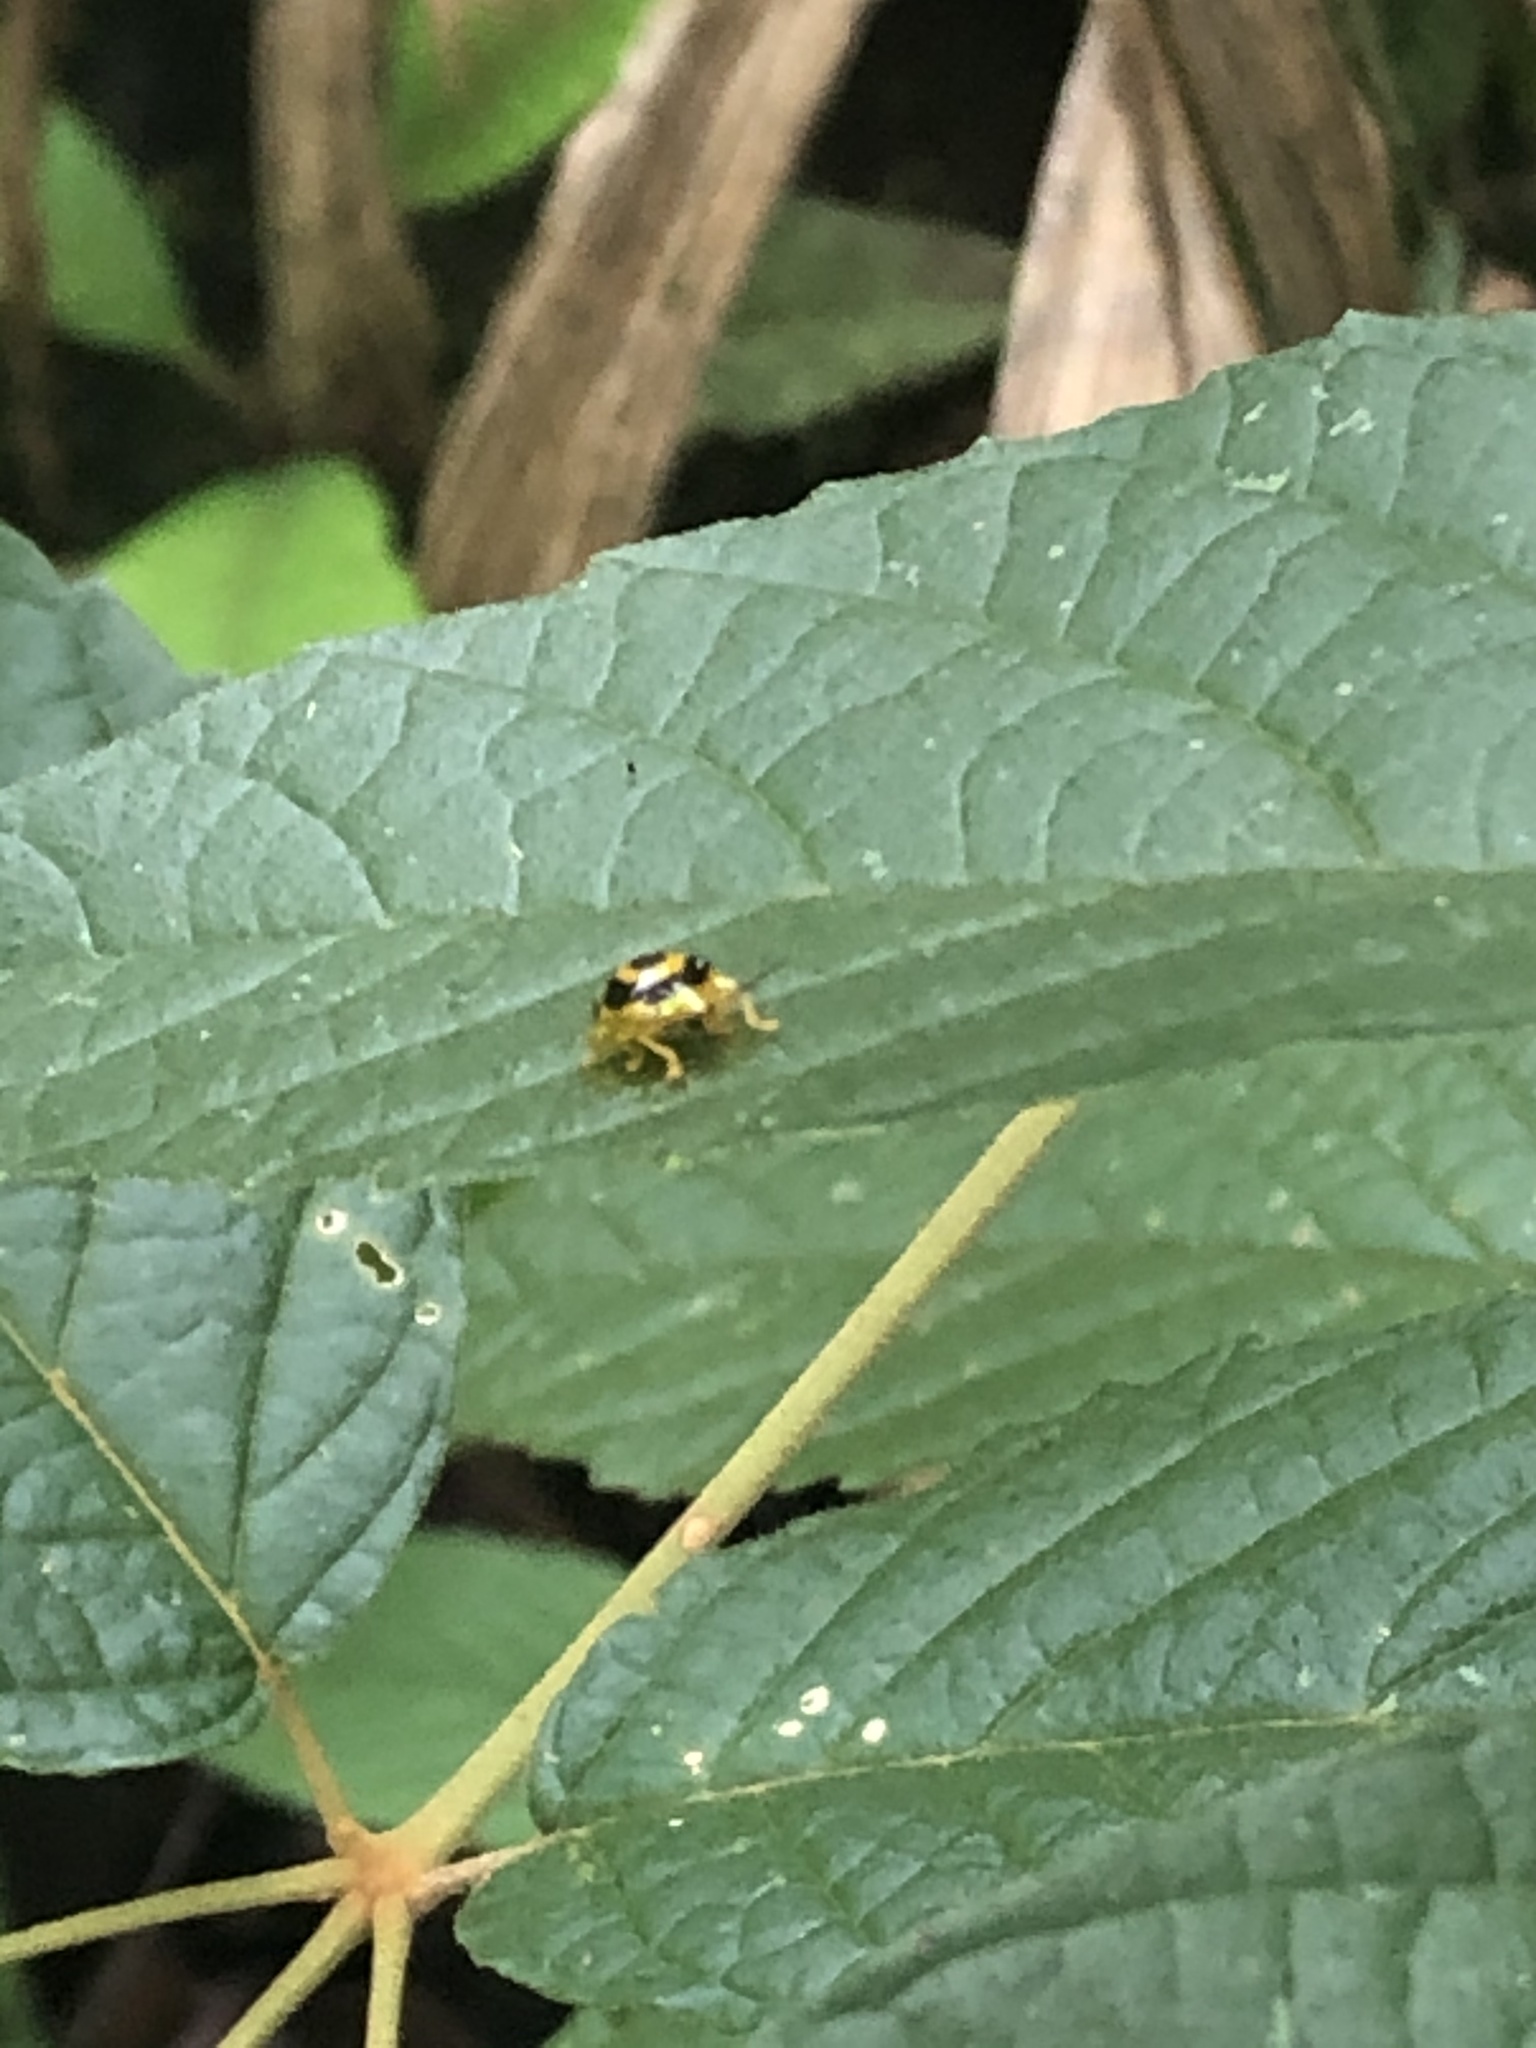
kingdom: Animalia
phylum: Arthropoda
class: Insecta
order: Coleoptera
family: Chrysomelidae
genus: Ischnocodia
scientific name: Ischnocodia annulus
